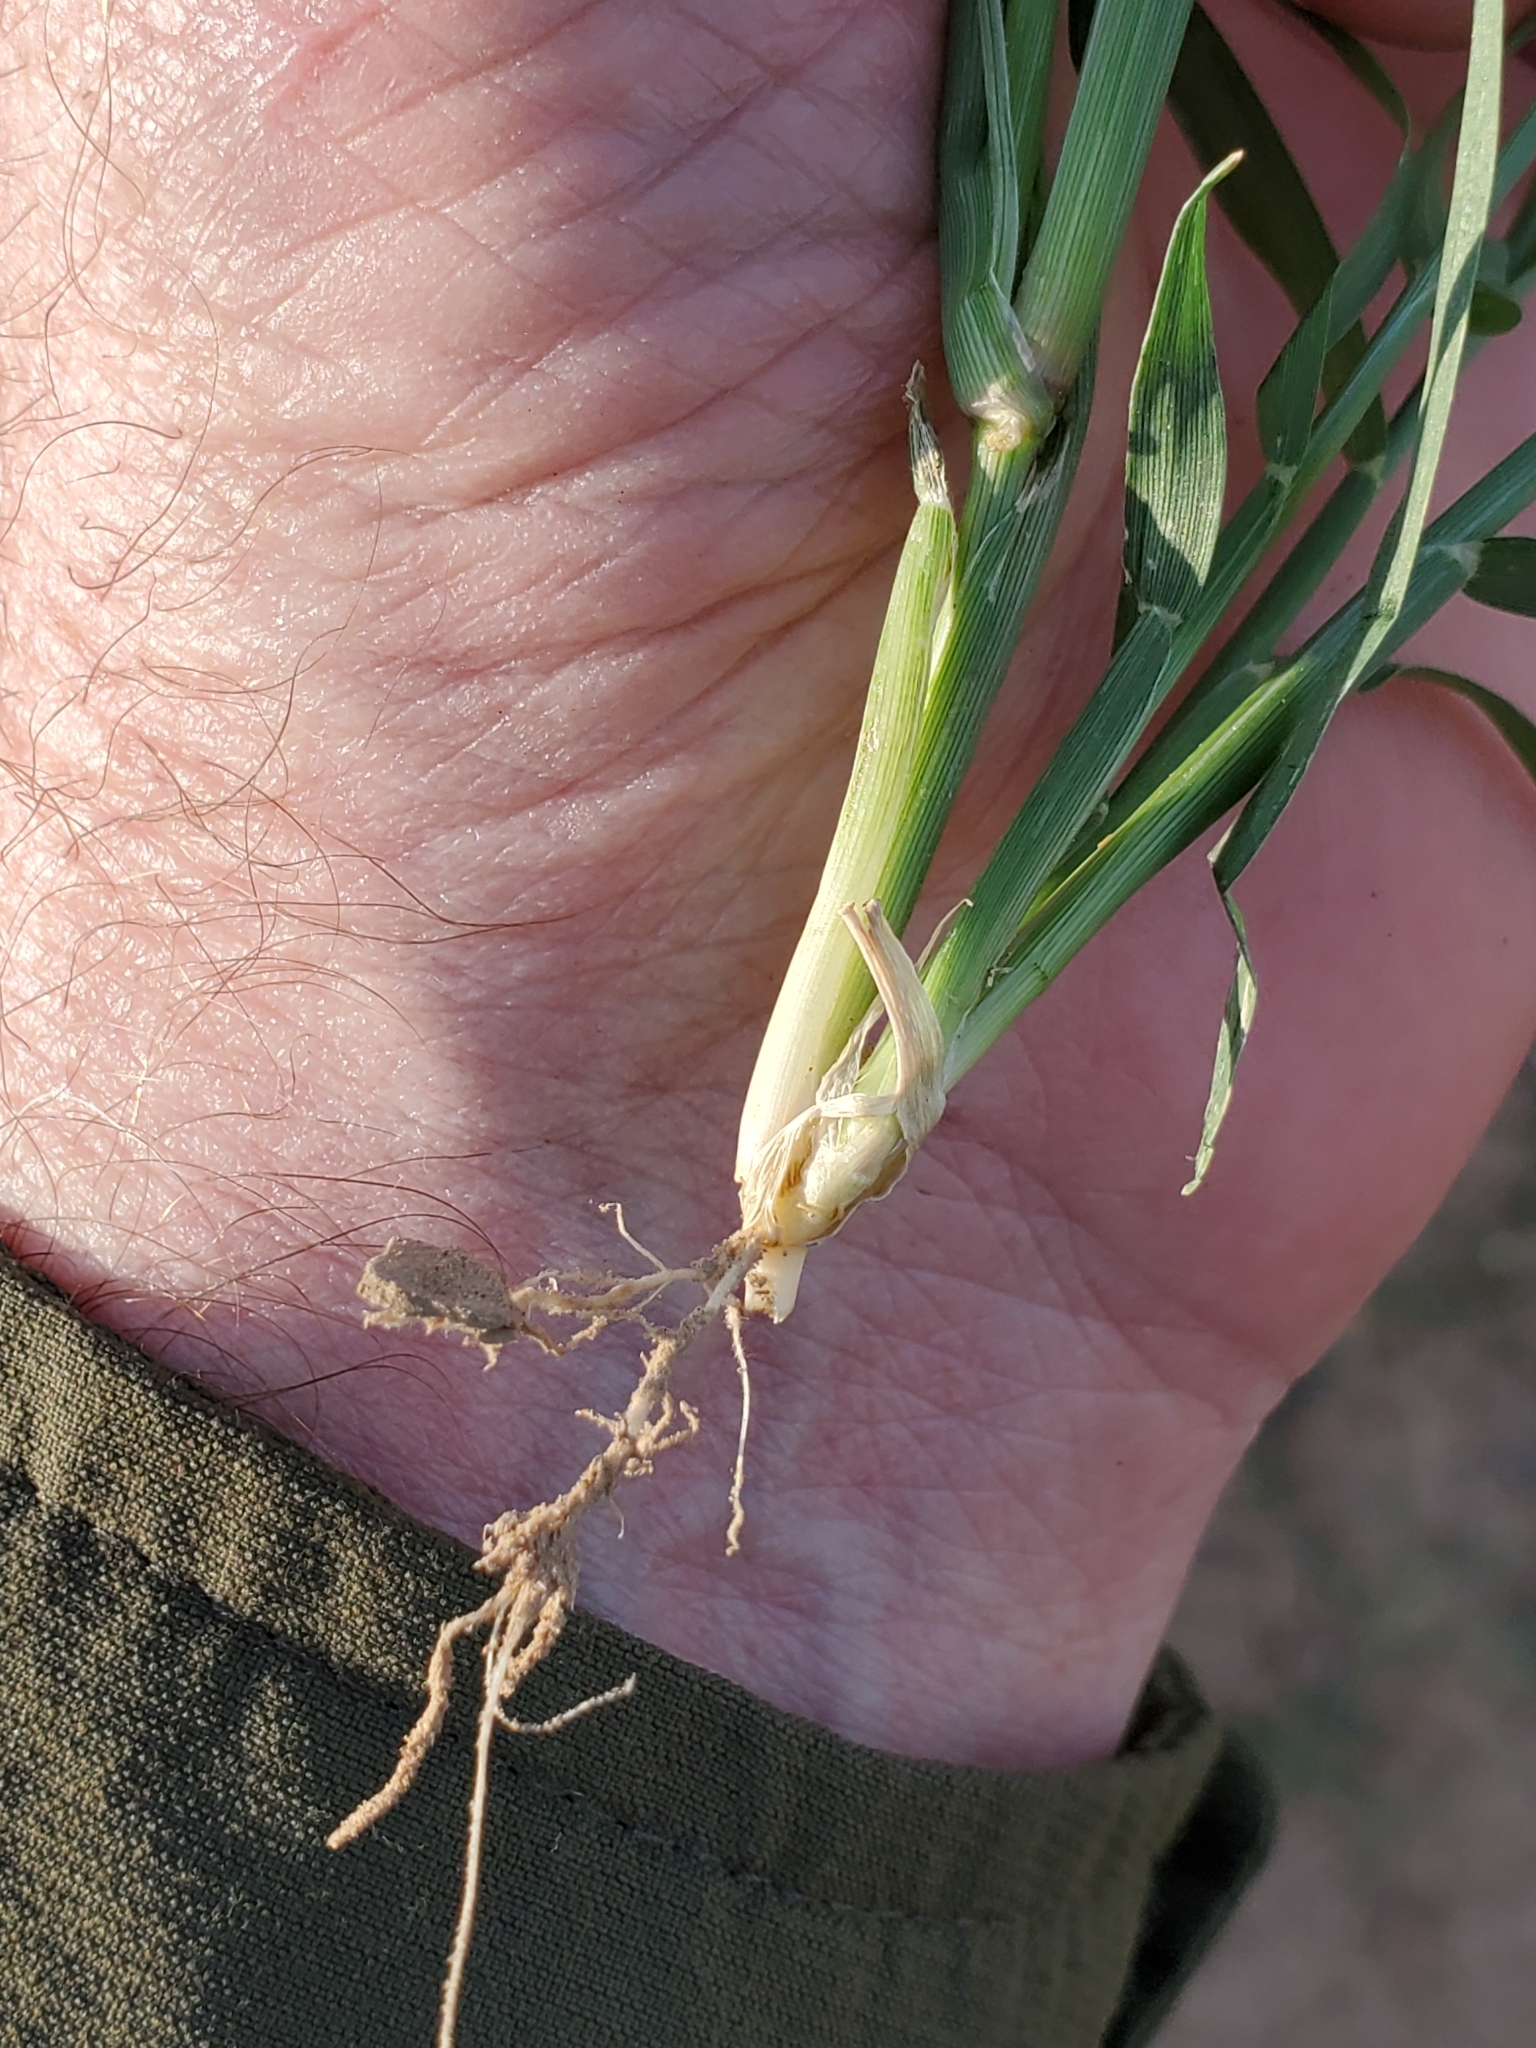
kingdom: Plantae
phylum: Tracheophyta
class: Liliopsida
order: Poales
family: Poaceae
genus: Cynodon
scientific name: Cynodon dactylon
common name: Bermuda grass
